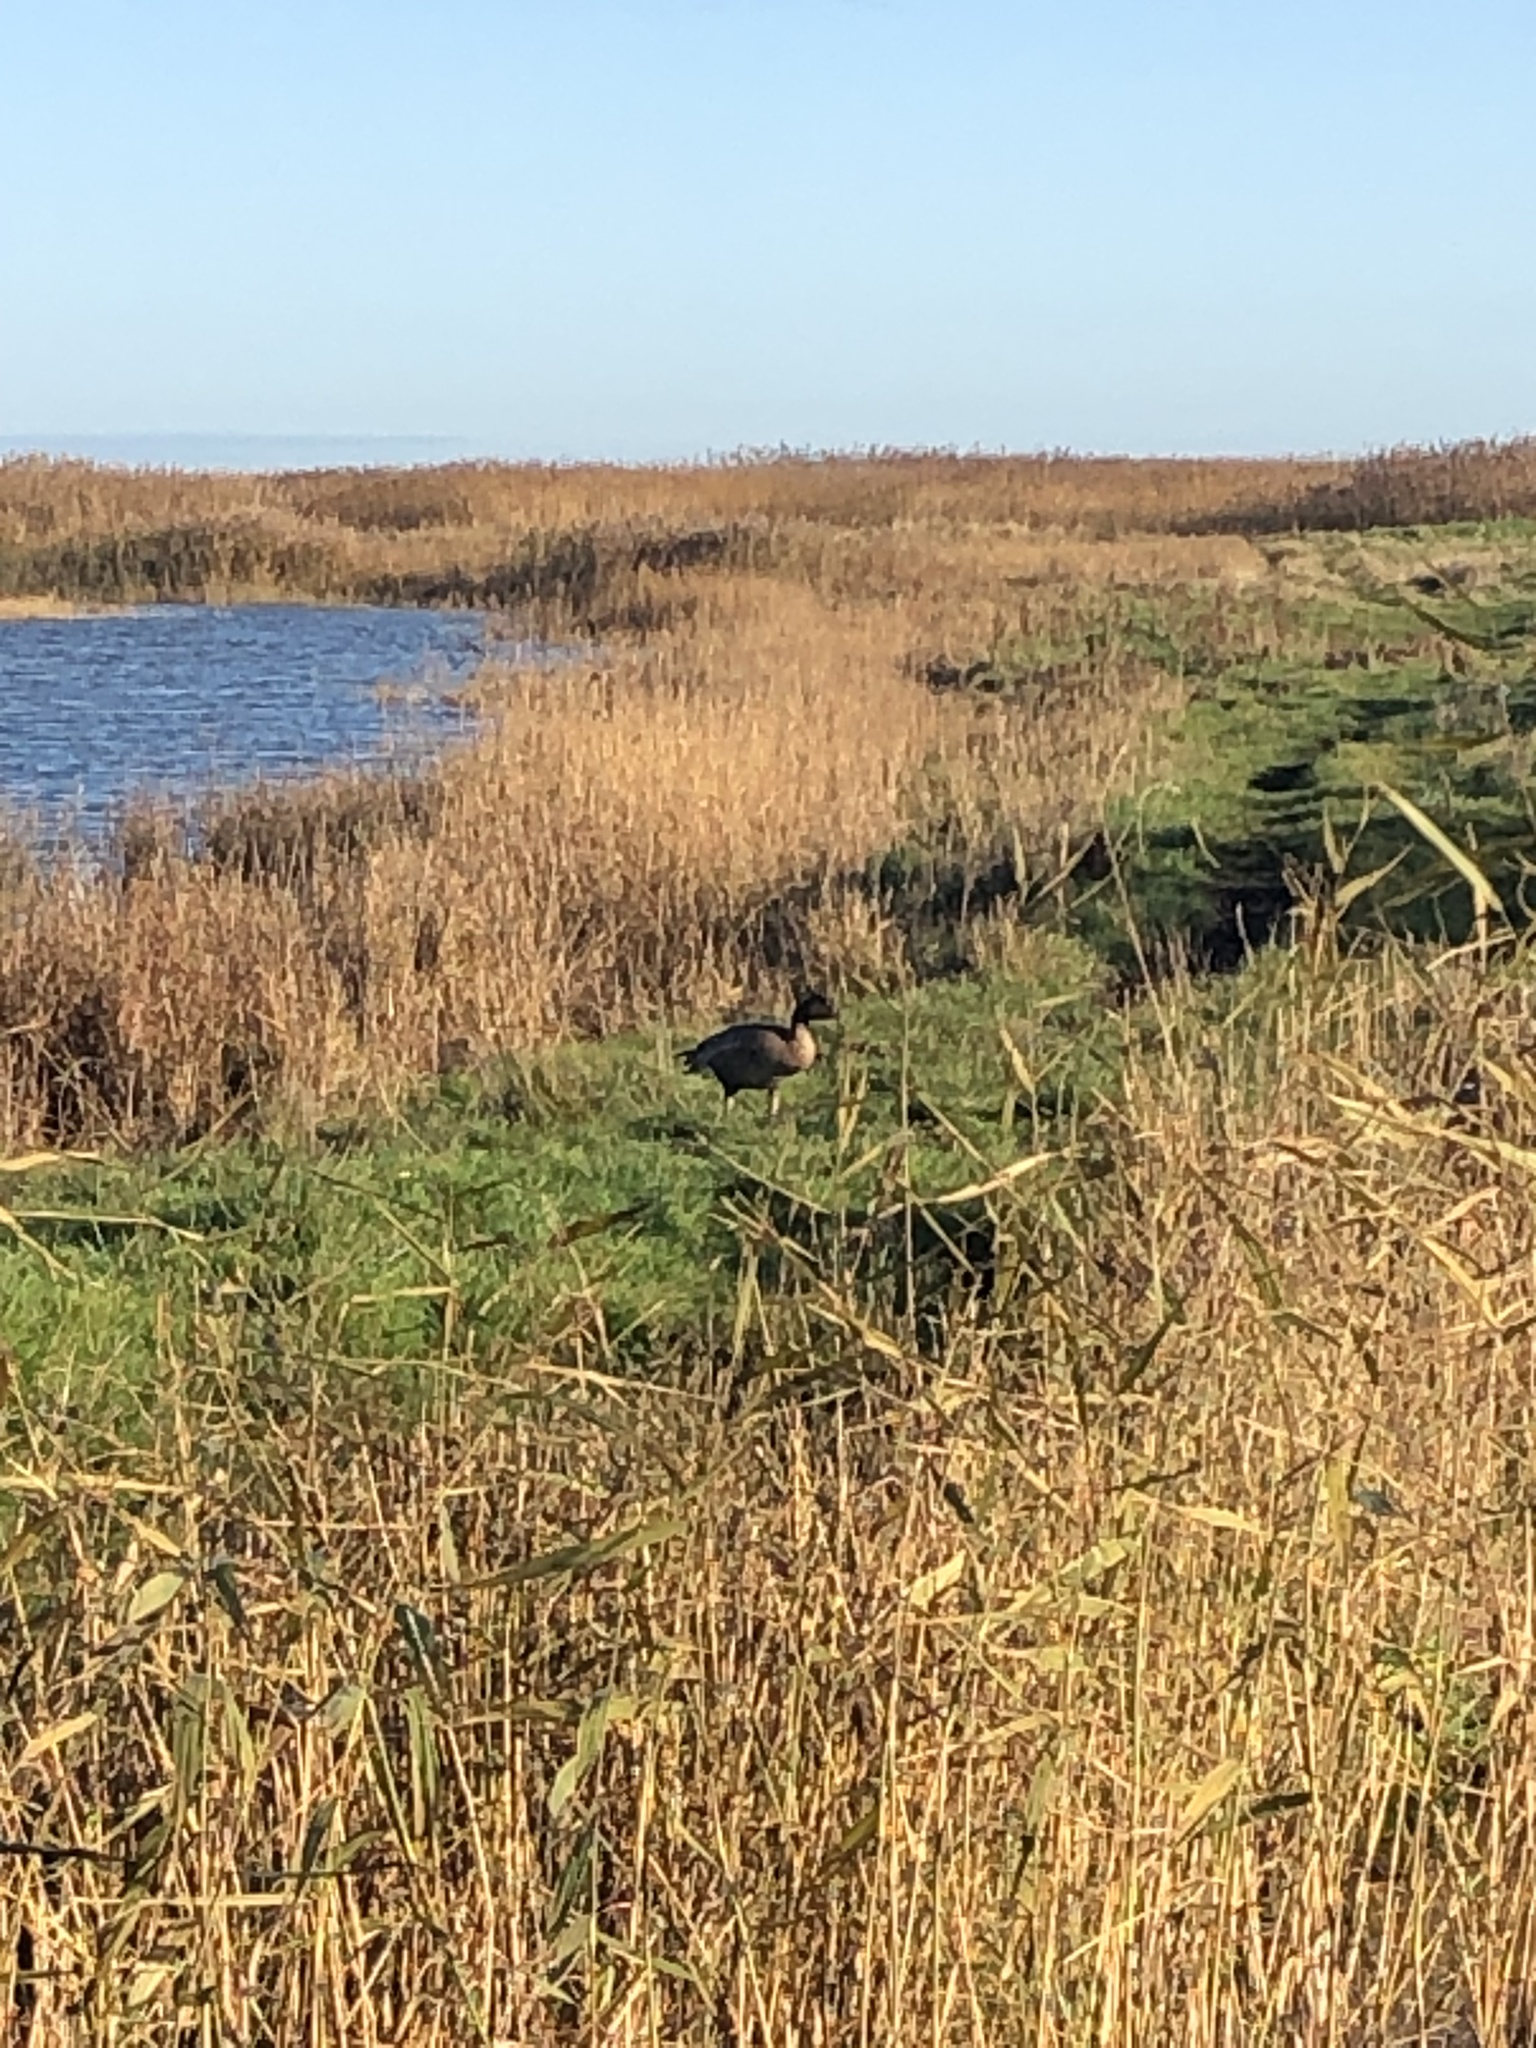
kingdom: Animalia
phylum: Chordata
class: Aves
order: Anseriformes
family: Anatidae
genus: Anser
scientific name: Anser brachyrhynchus
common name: Pink-footed goose
